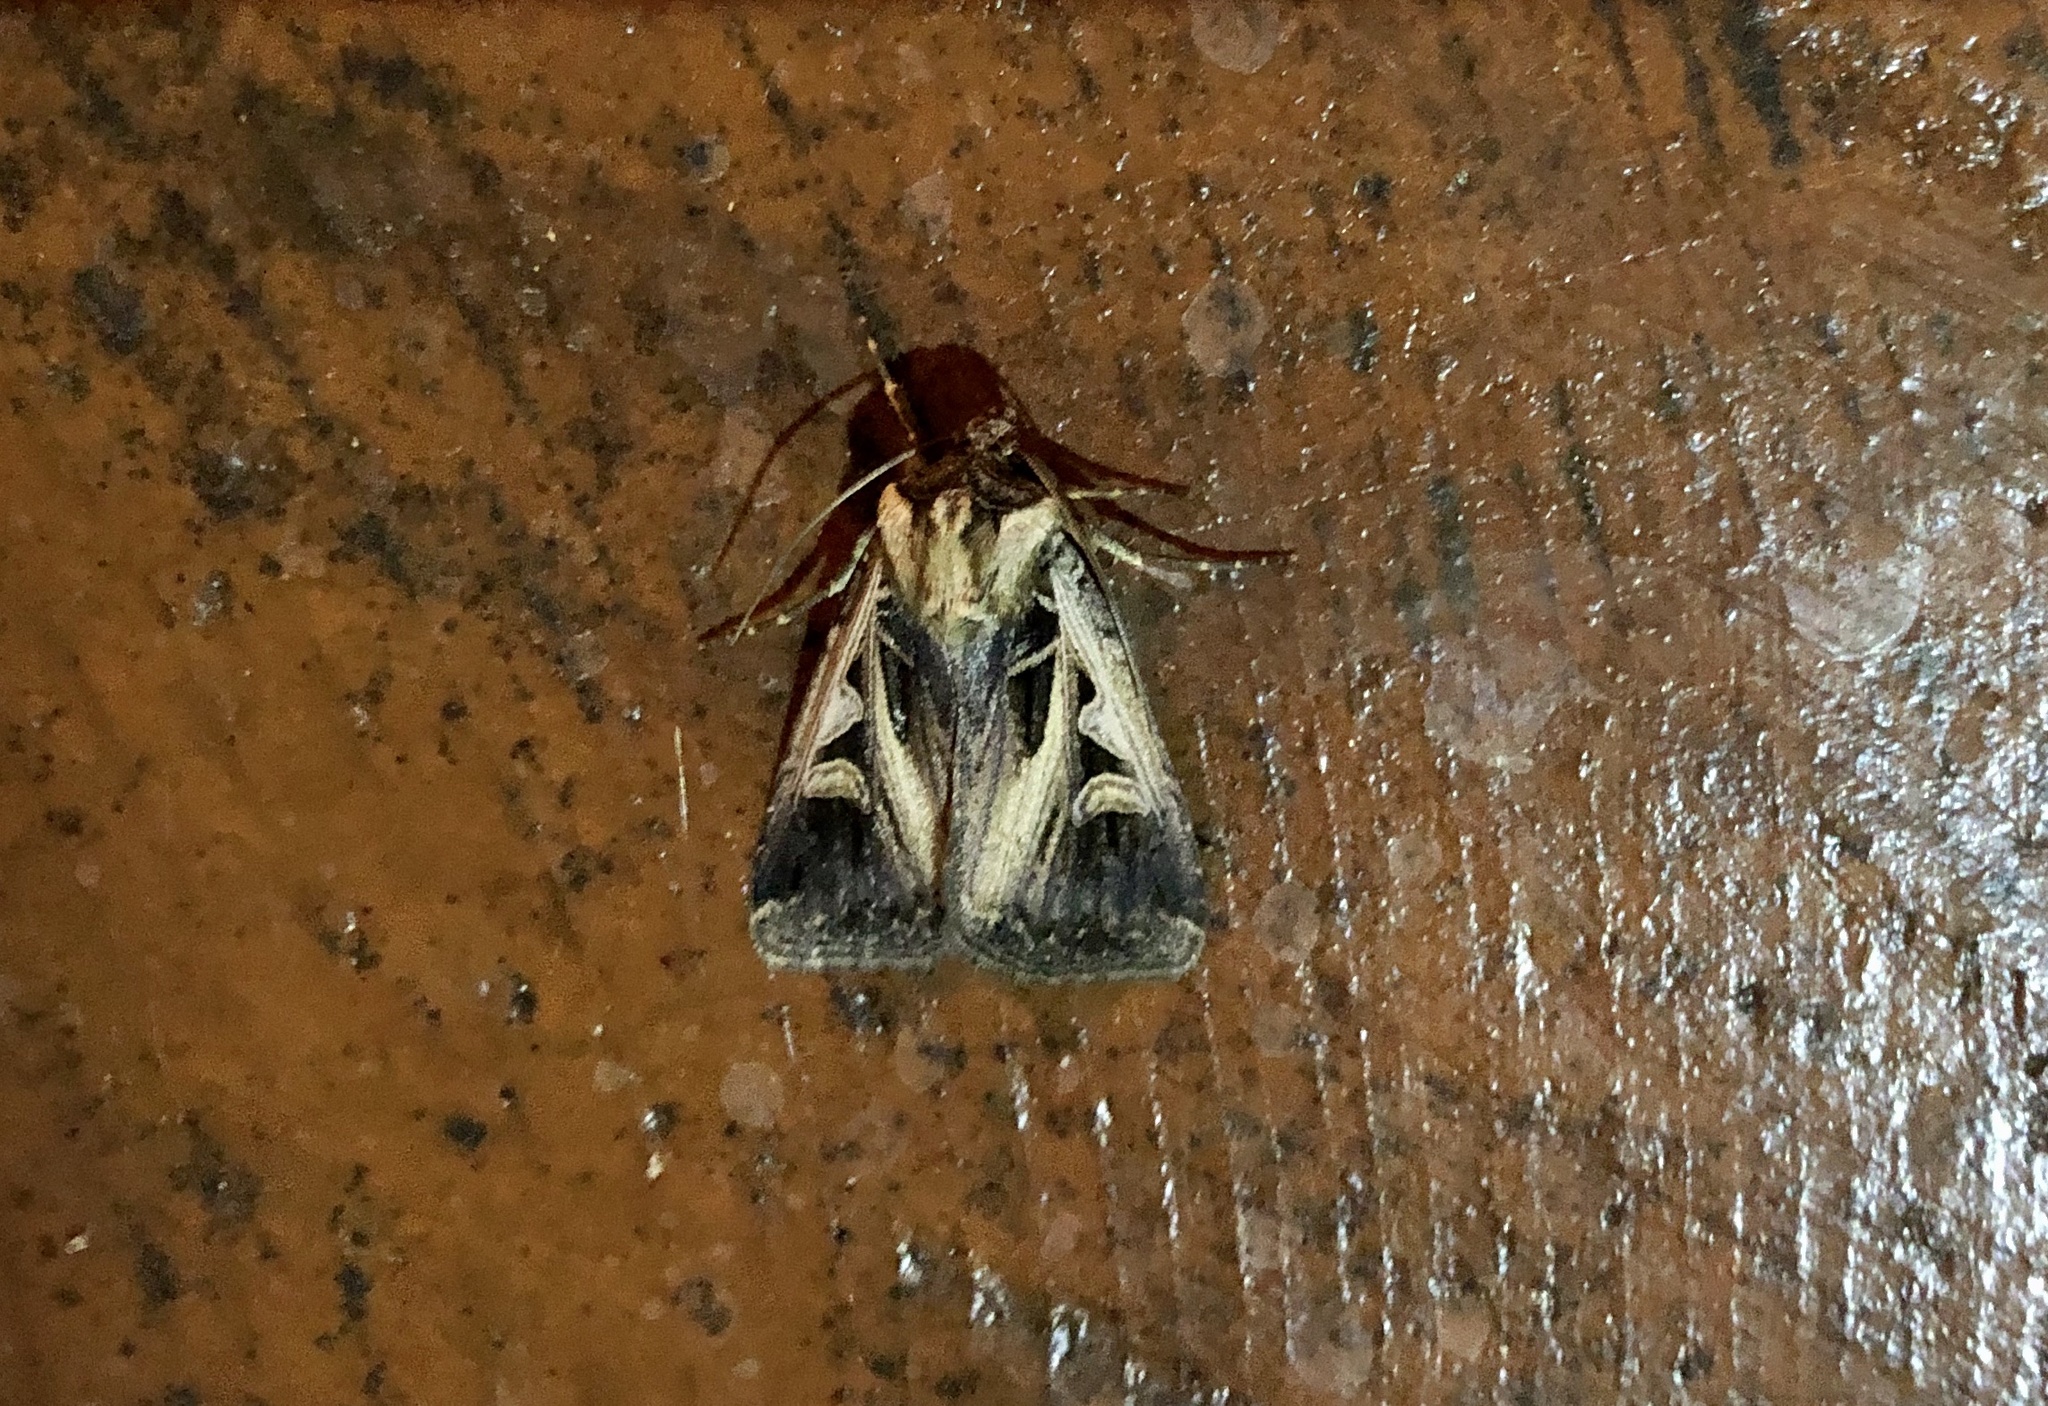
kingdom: Animalia
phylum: Arthropoda
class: Insecta
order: Lepidoptera
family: Noctuidae
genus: Feltia
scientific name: Feltia subgothica
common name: Gothic dart
